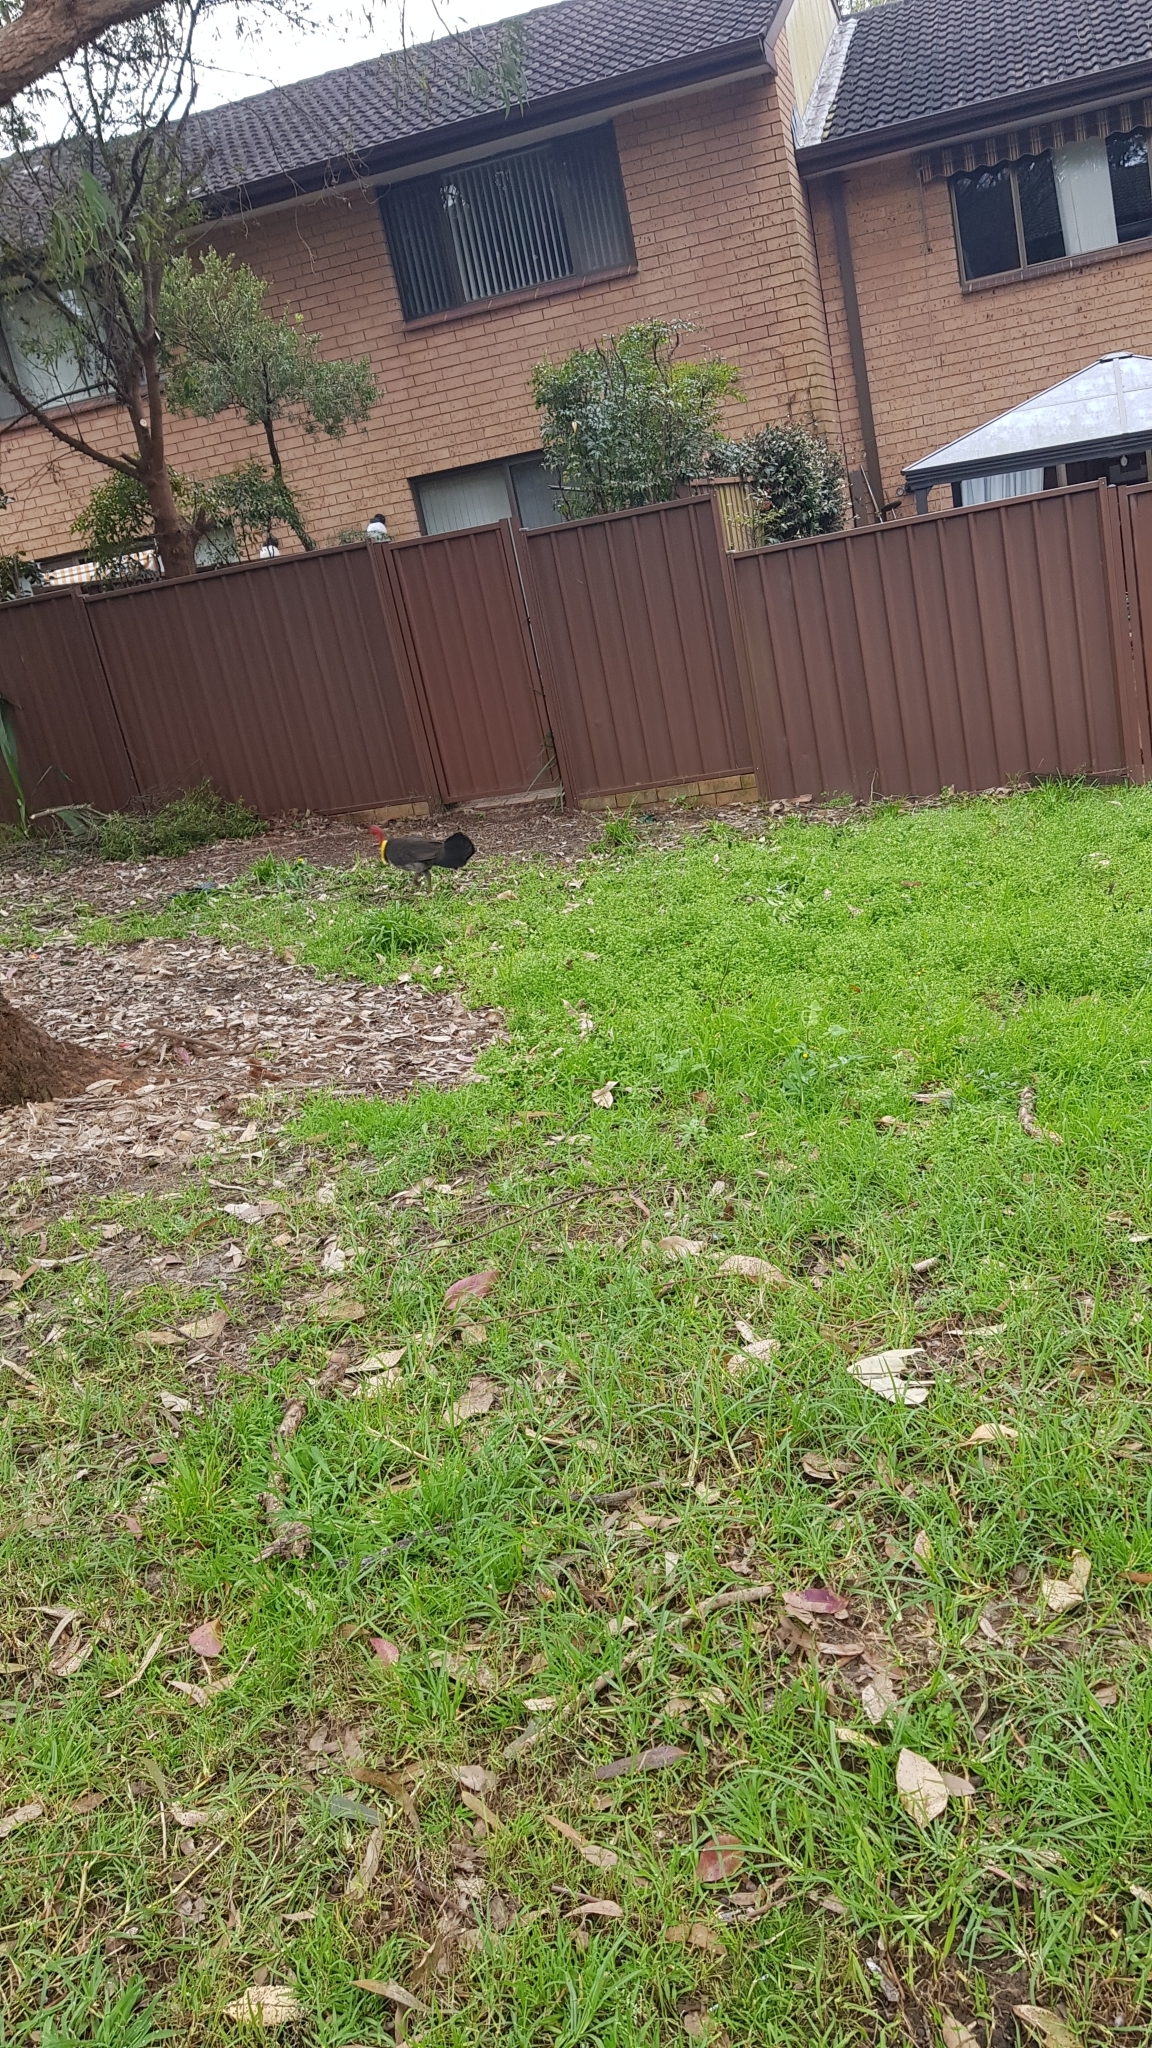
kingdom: Animalia
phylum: Chordata
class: Aves
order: Galliformes
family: Megapodiidae
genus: Alectura
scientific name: Alectura lathami
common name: Australian brushturkey
